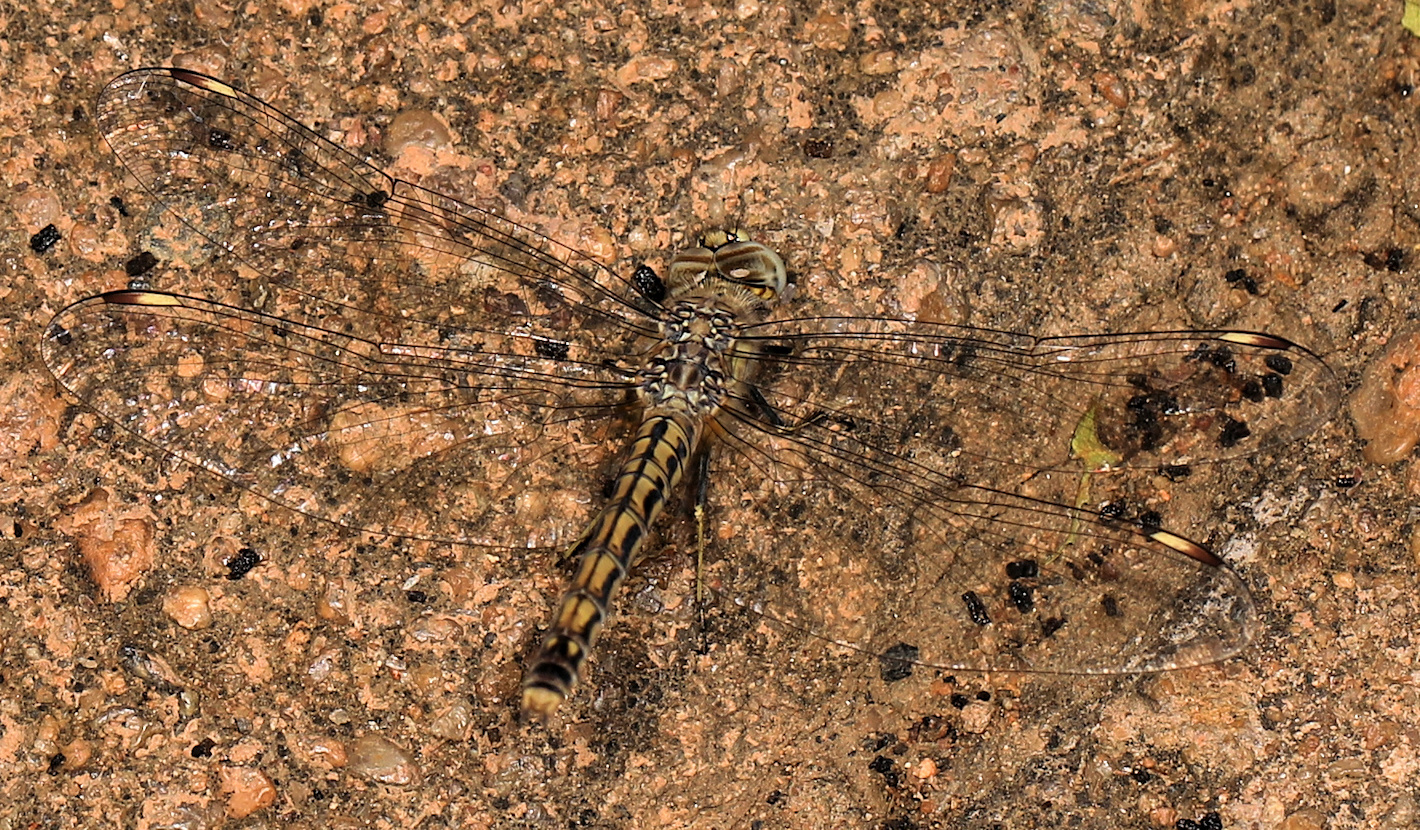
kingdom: Animalia
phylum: Arthropoda
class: Insecta
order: Odonata
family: Libellulidae
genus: Brachythemis
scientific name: Brachythemis leucosticta
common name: Banded groundling
